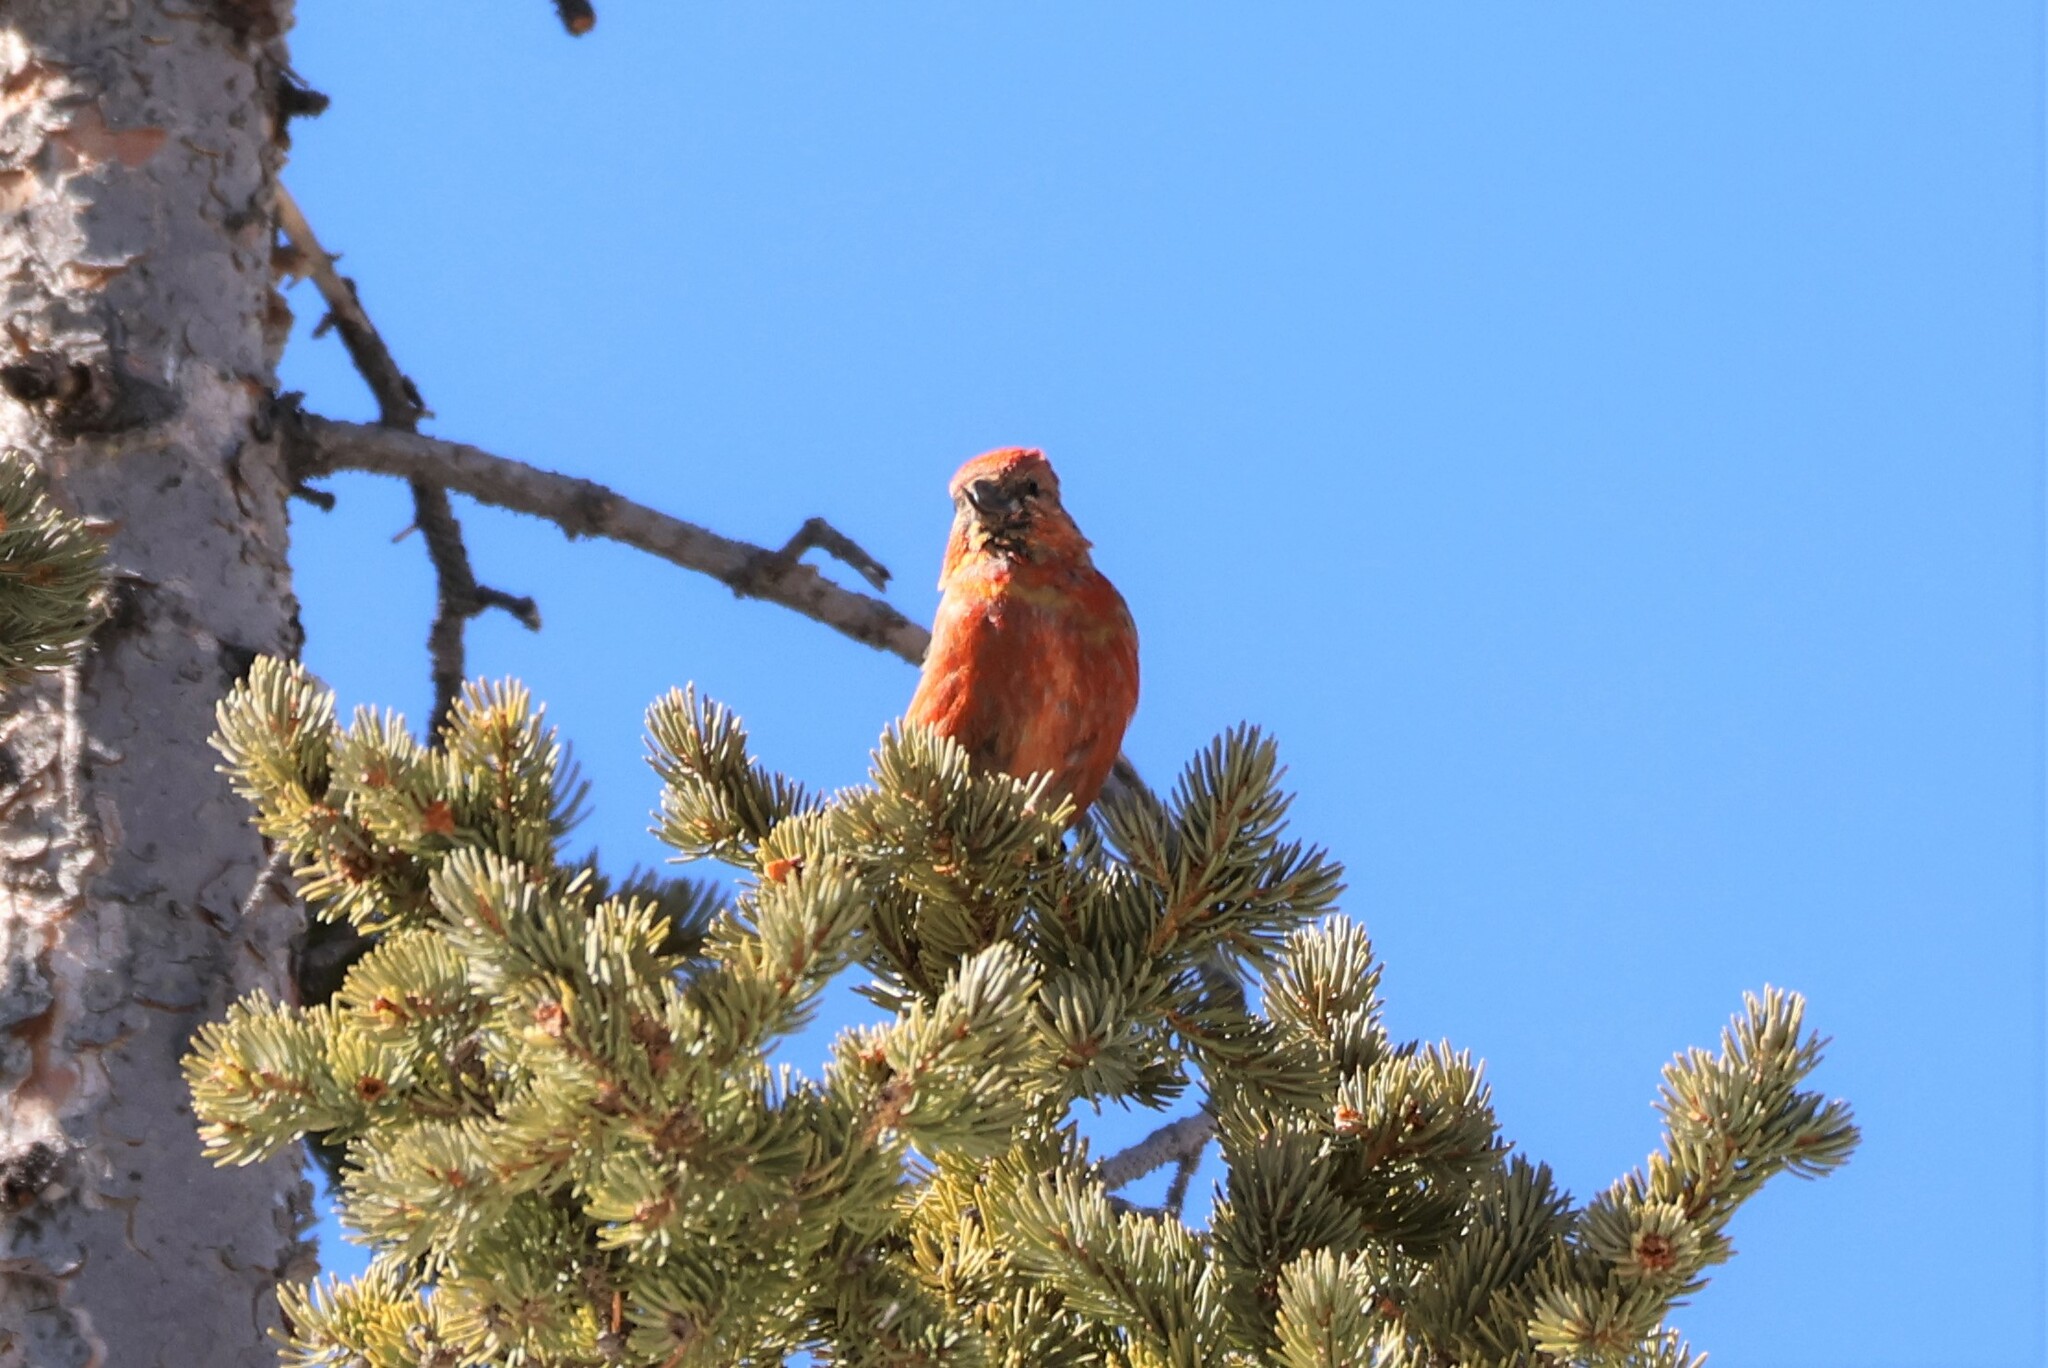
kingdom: Animalia
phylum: Chordata
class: Aves
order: Passeriformes
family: Fringillidae
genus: Loxia
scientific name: Loxia curvirostra
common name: Red crossbill
